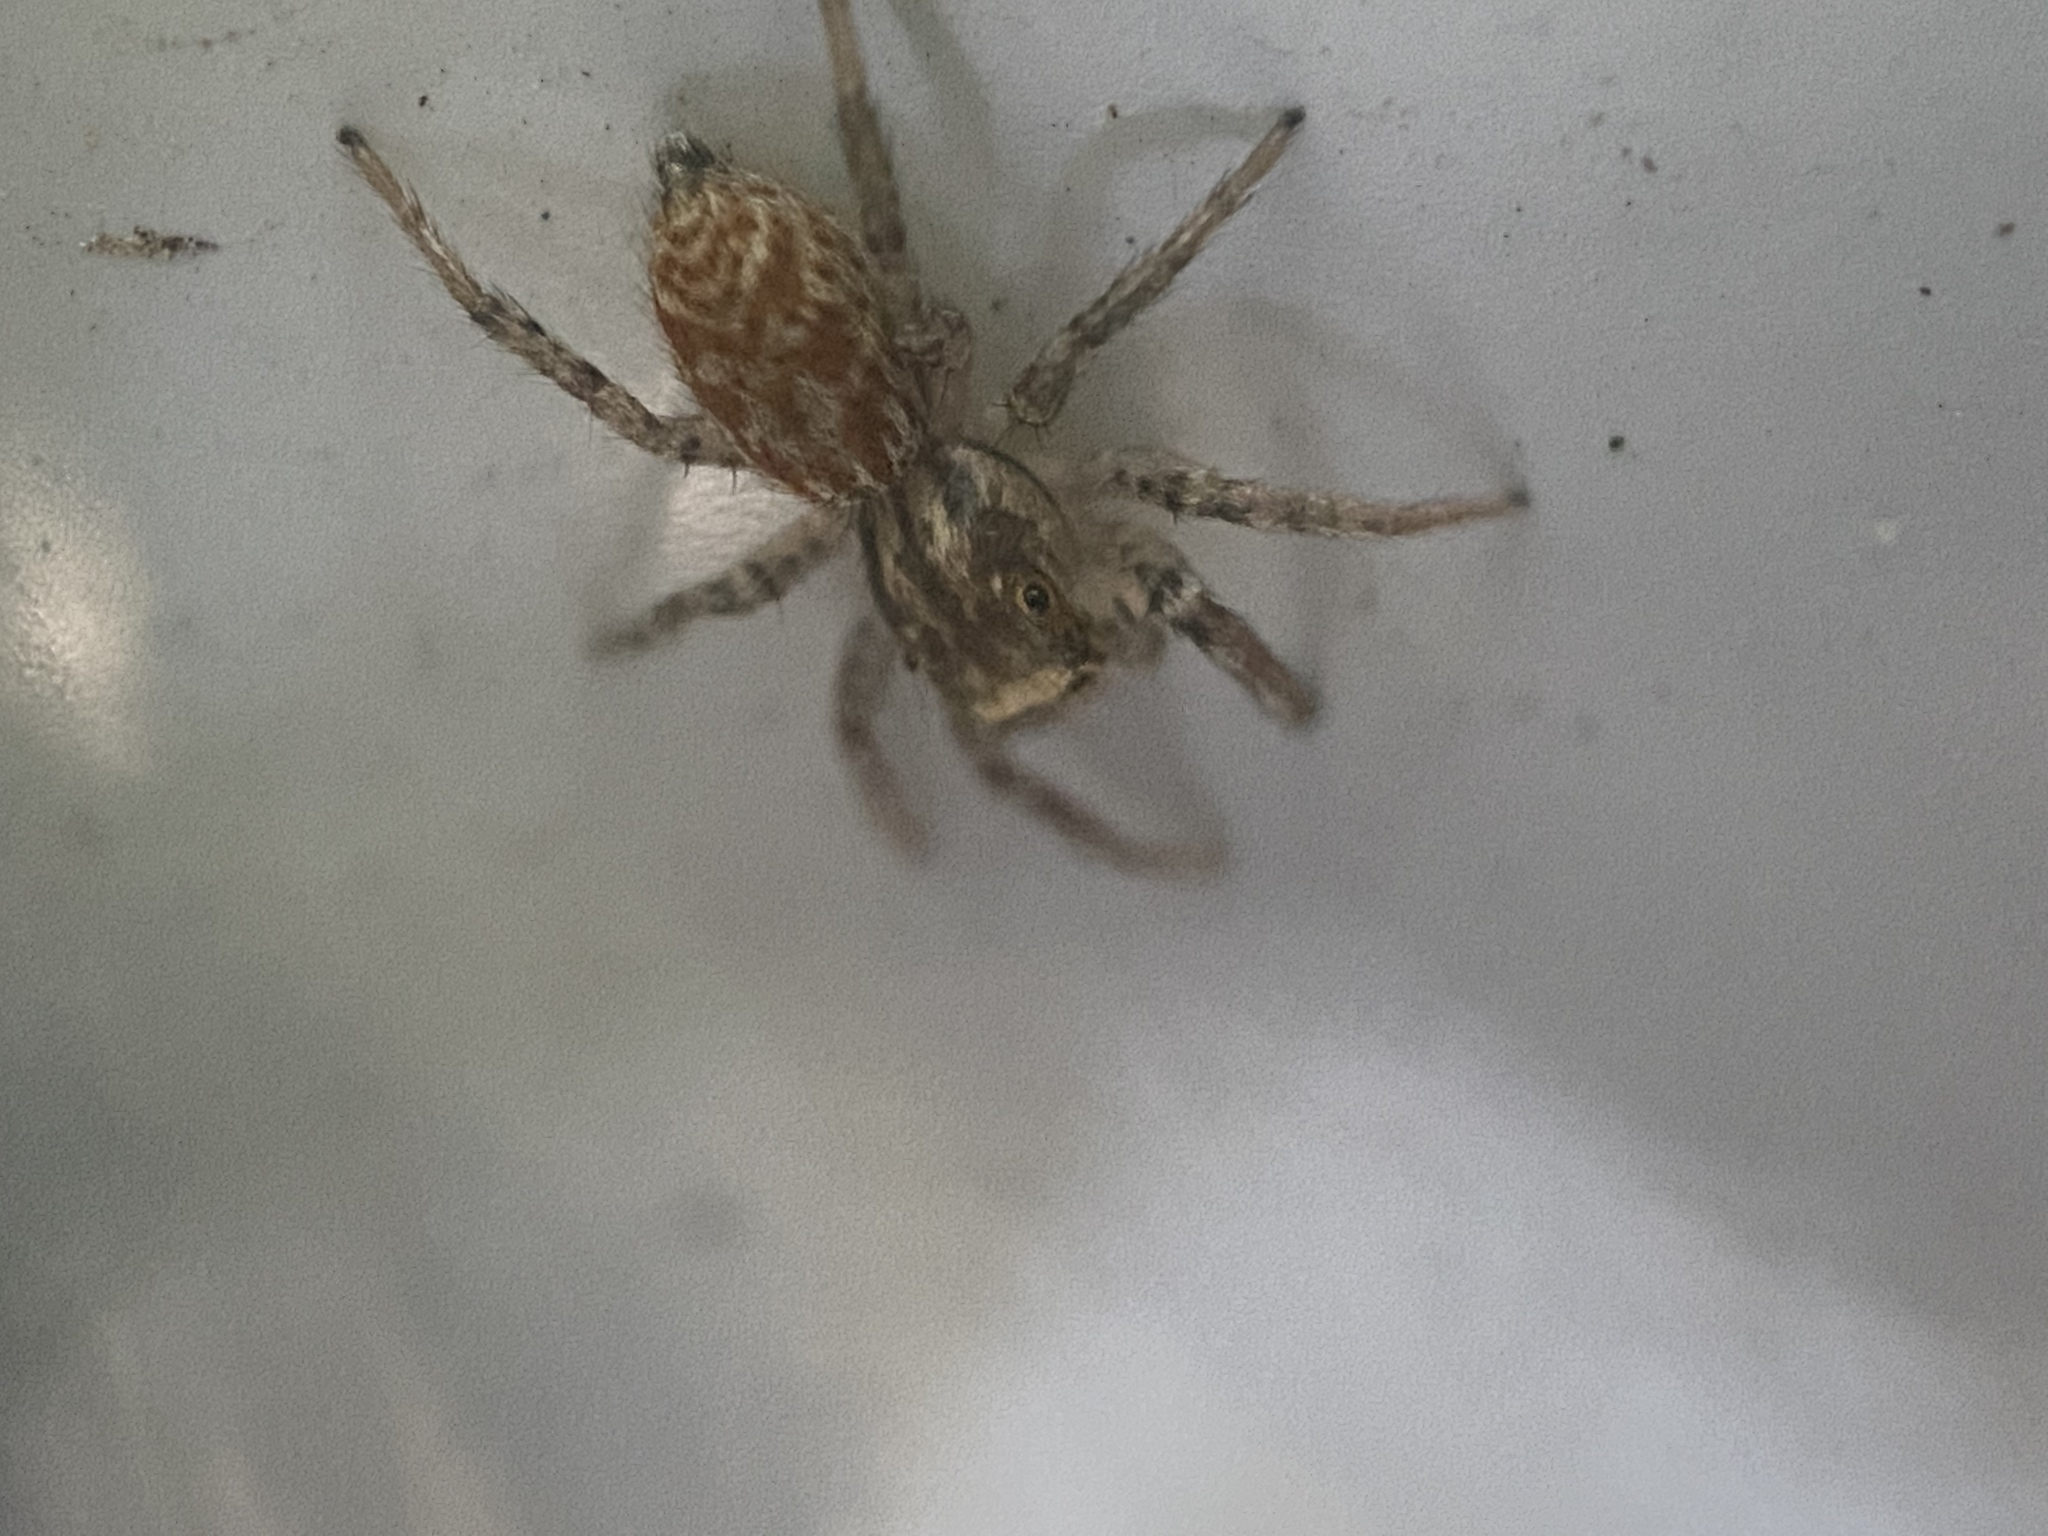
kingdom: Animalia
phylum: Arthropoda
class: Arachnida
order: Araneae
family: Salticidae
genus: Maevia
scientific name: Maevia inclemens
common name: Dimorphic jumper
